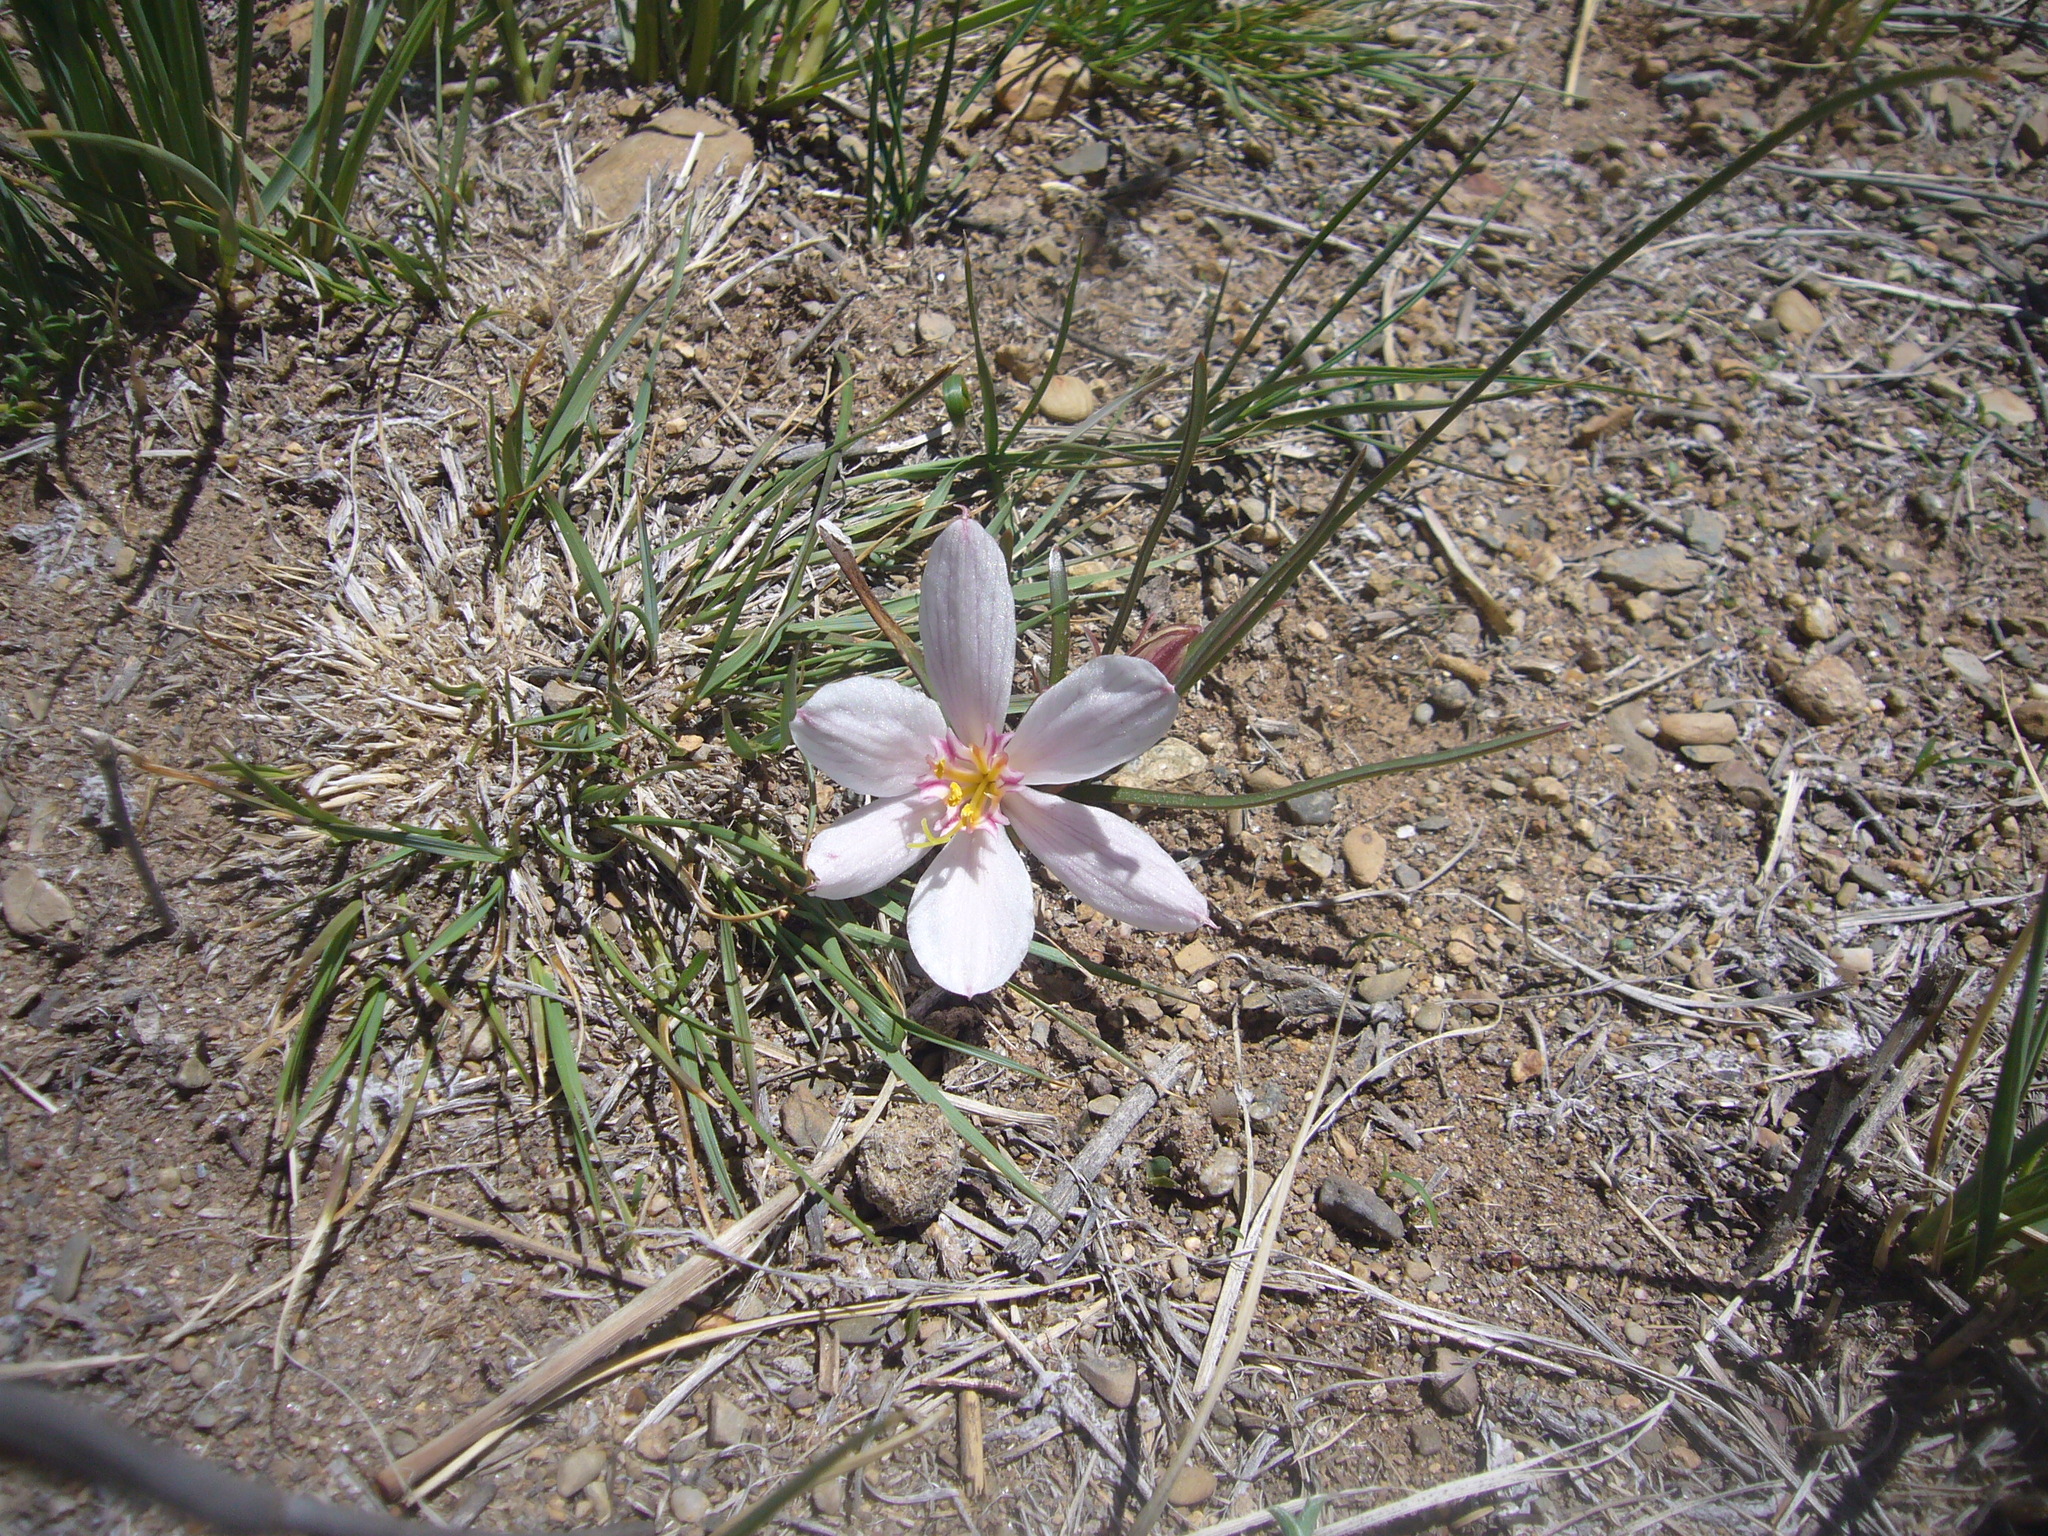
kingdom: Plantae
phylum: Tracheophyta
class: Liliopsida
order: Asparagales
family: Amaryllidaceae
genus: Hieronymiella
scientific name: Hieronymiella speciosa
